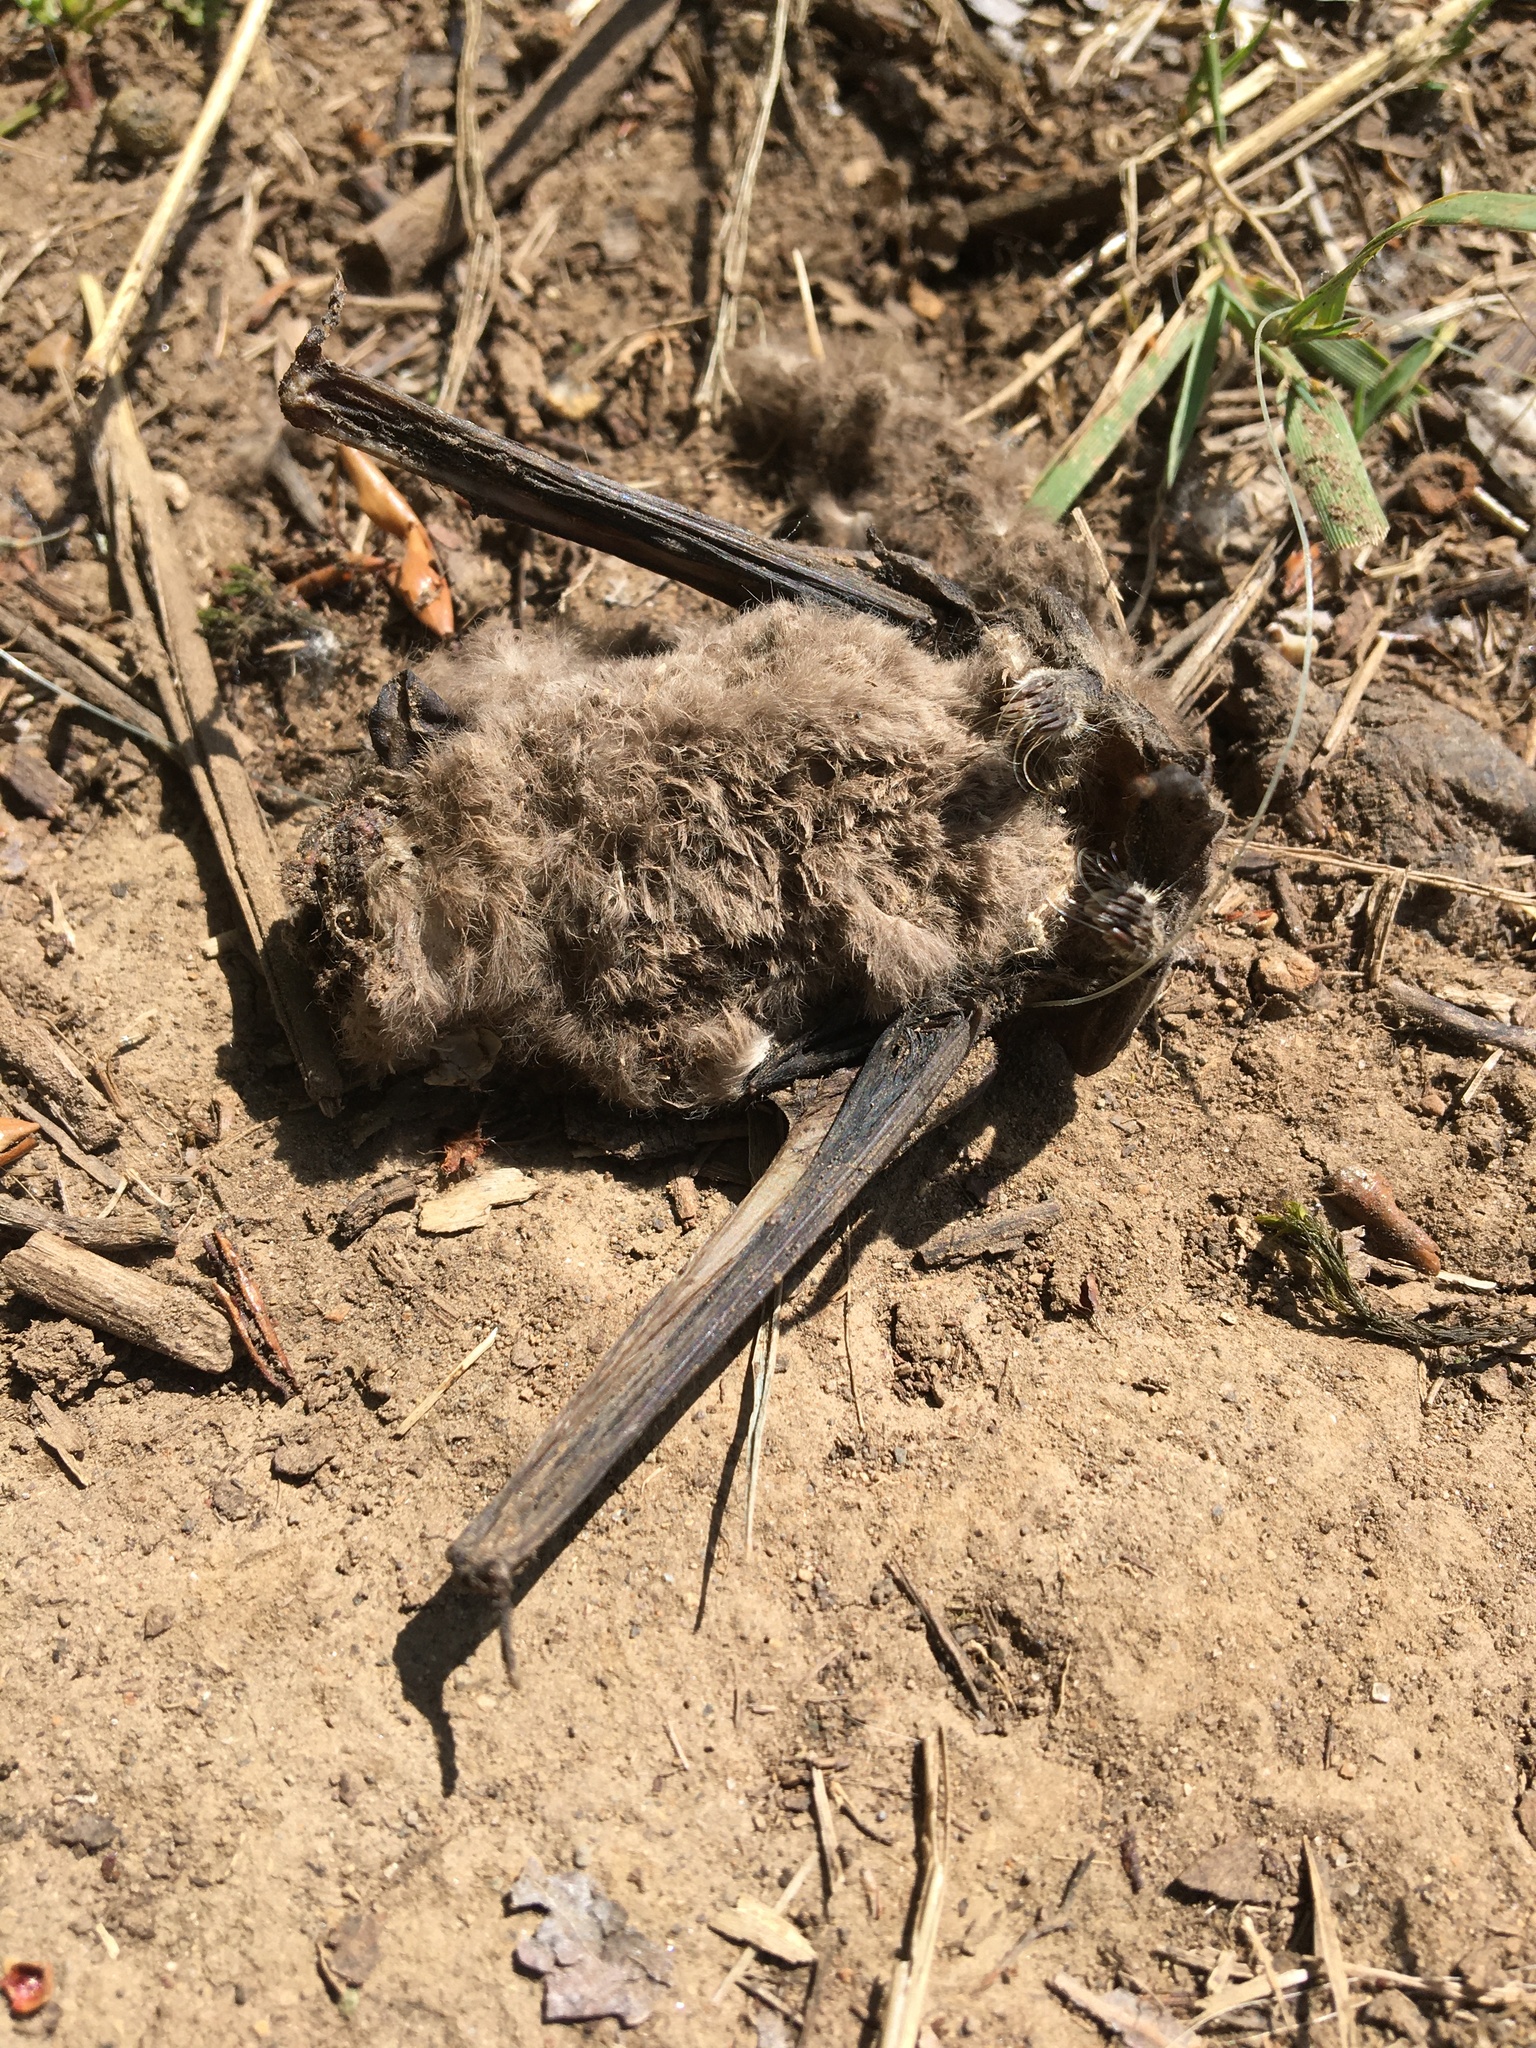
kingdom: Animalia
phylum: Chordata
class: Mammalia
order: Chiroptera
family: Molossidae
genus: Tadarida
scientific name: Tadarida brasiliensis
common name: Mexican free-tailed bat
